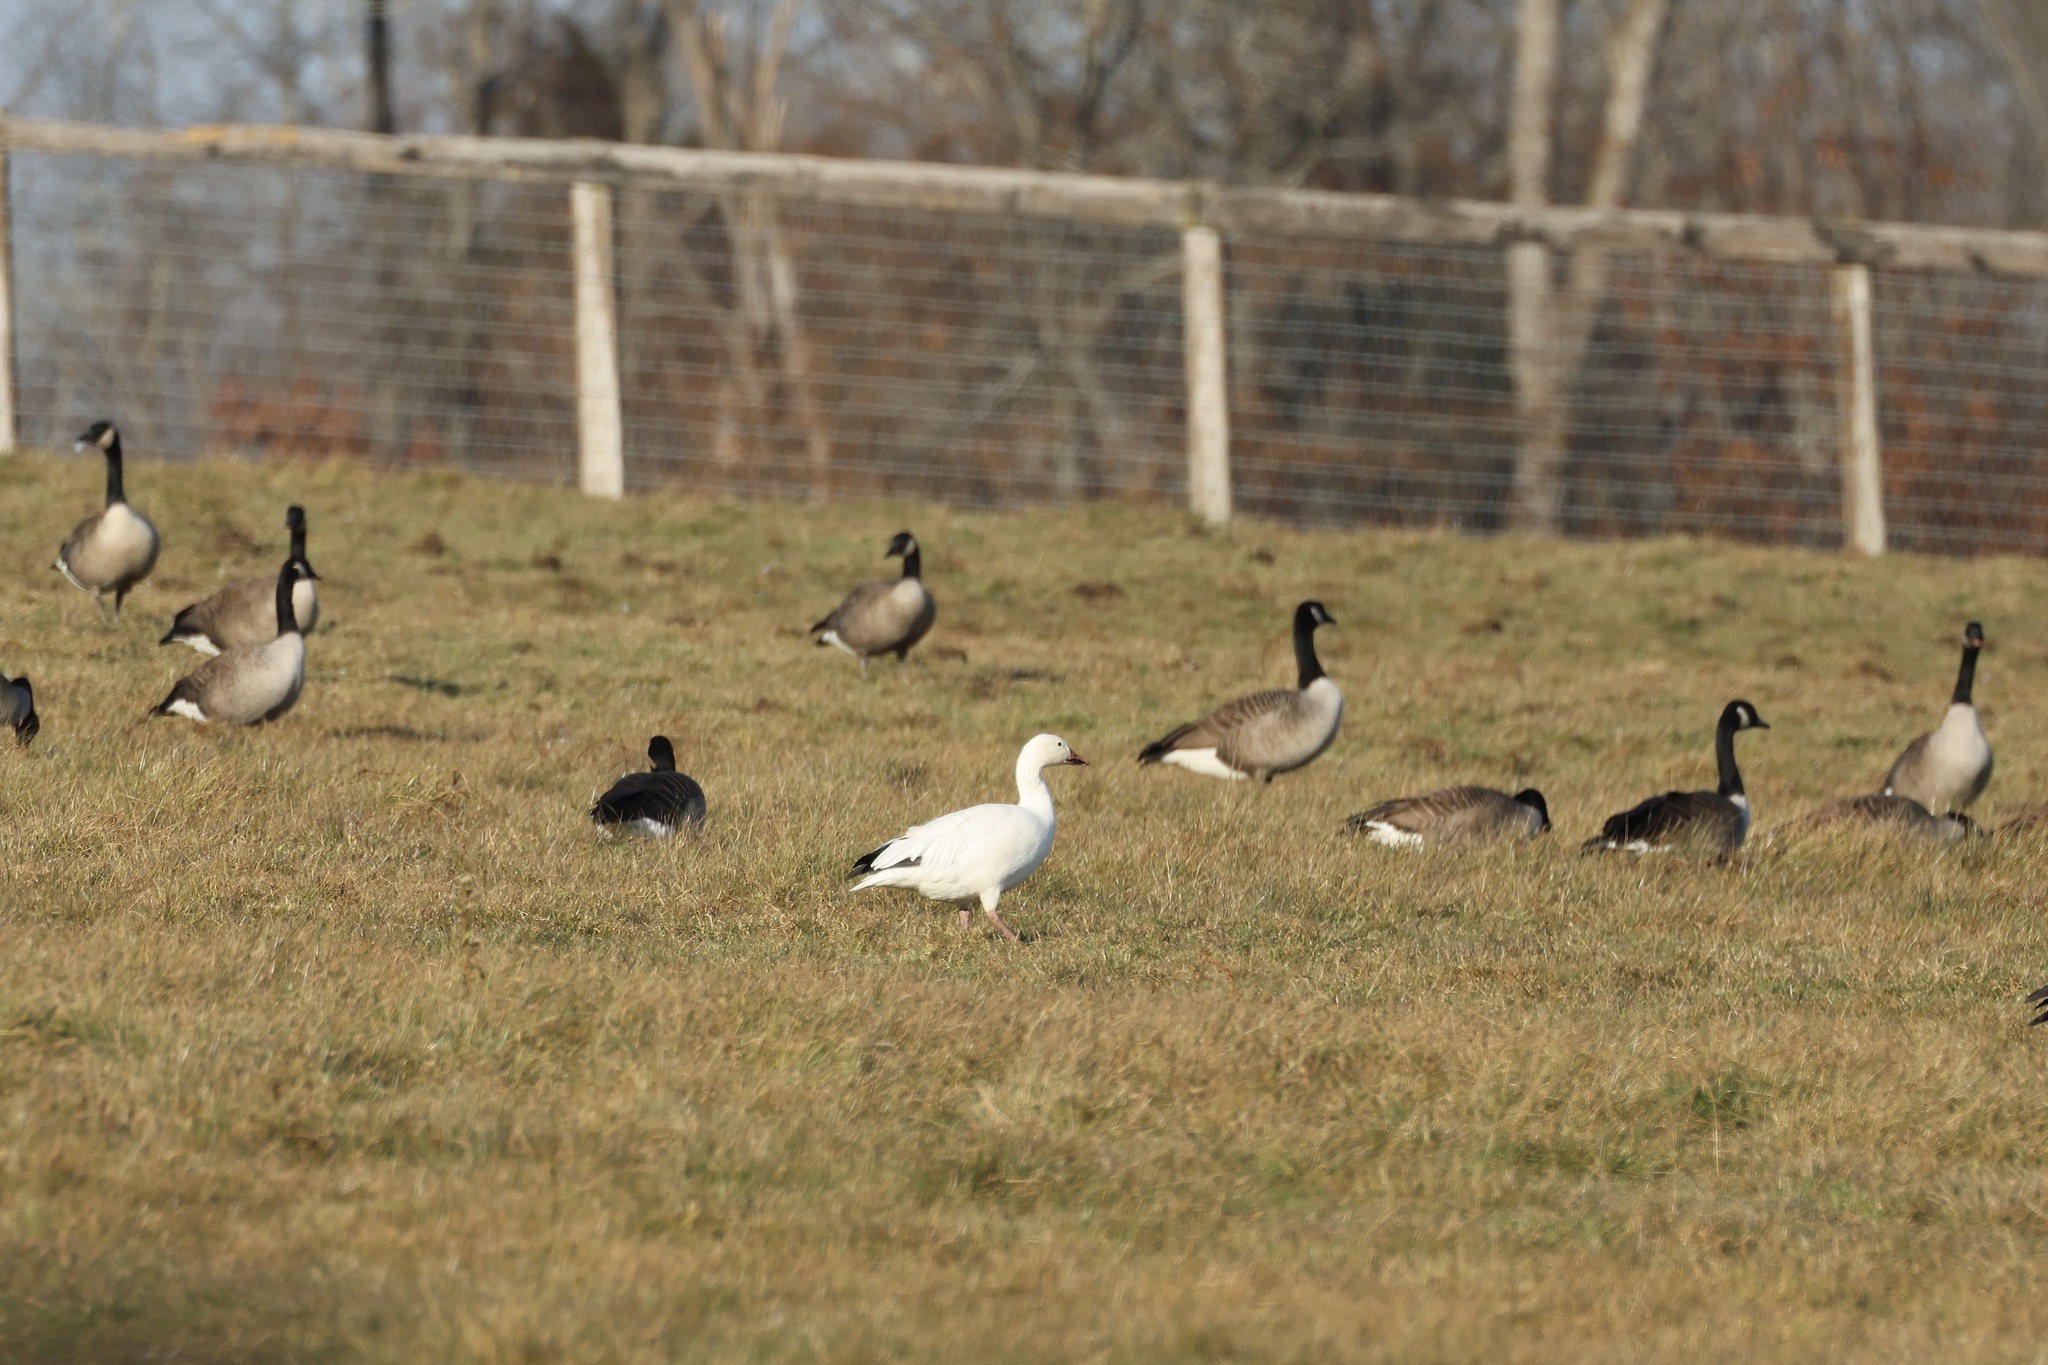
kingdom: Animalia
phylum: Chordata
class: Aves
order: Anseriformes
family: Anatidae
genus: Anser
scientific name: Anser caerulescens
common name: Snow goose
